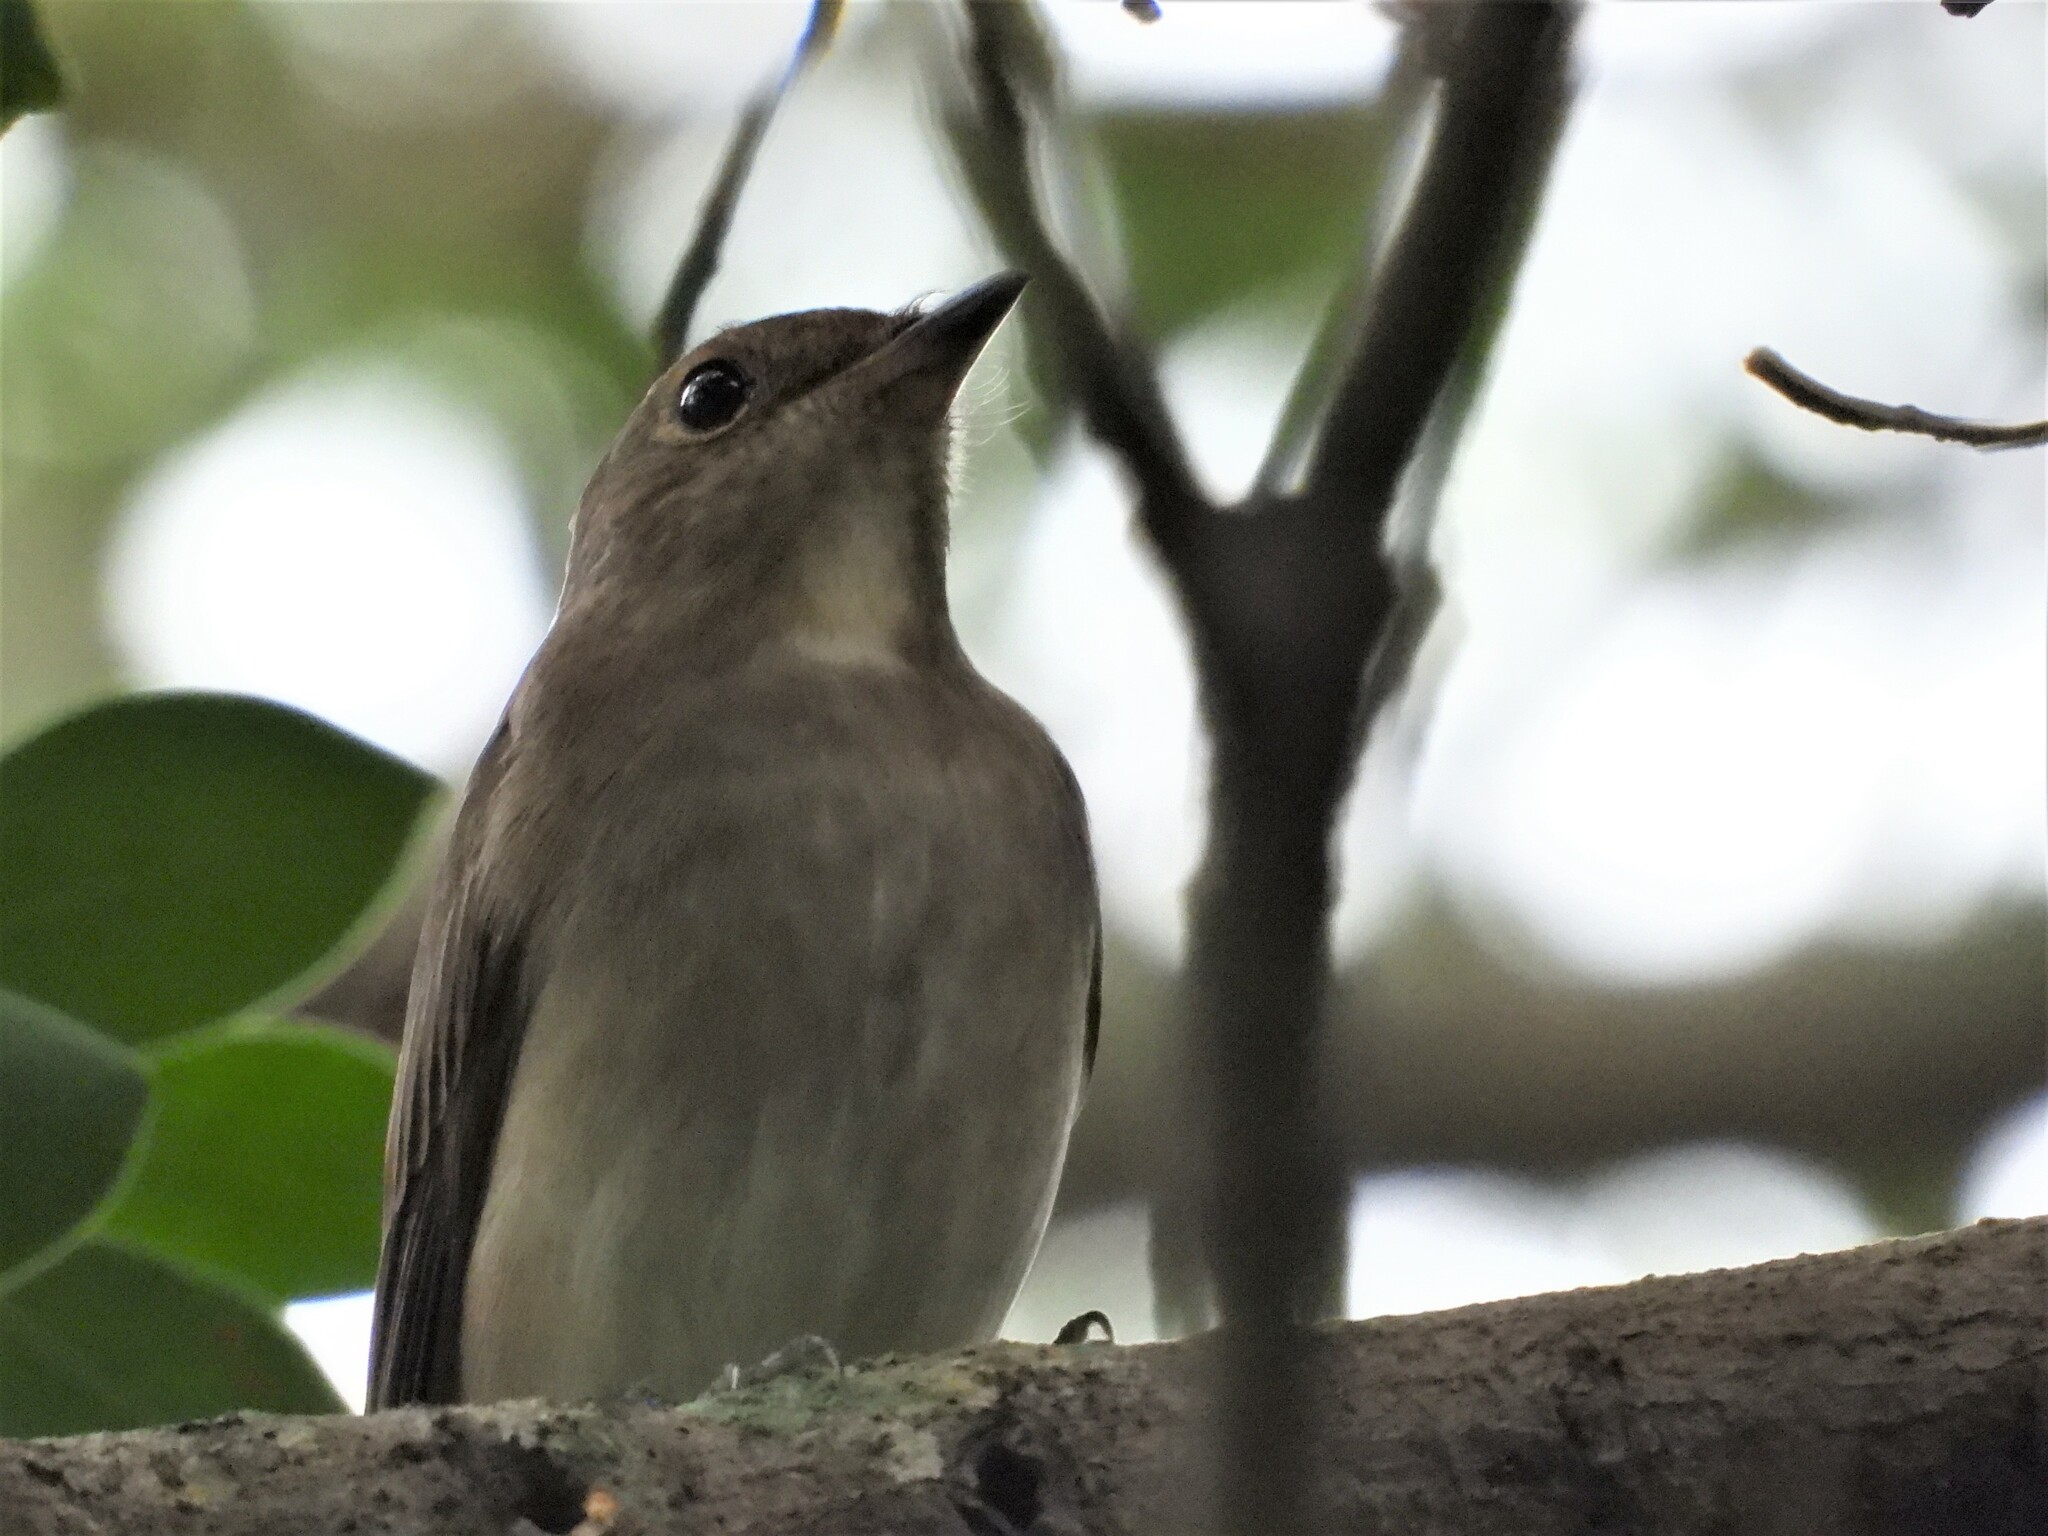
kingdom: Animalia
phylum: Chordata
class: Aves
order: Passeriformes
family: Muscicapidae
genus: Cyanoptila
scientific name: Cyanoptila cyanomelana
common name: Blue-and-white flycatcher
